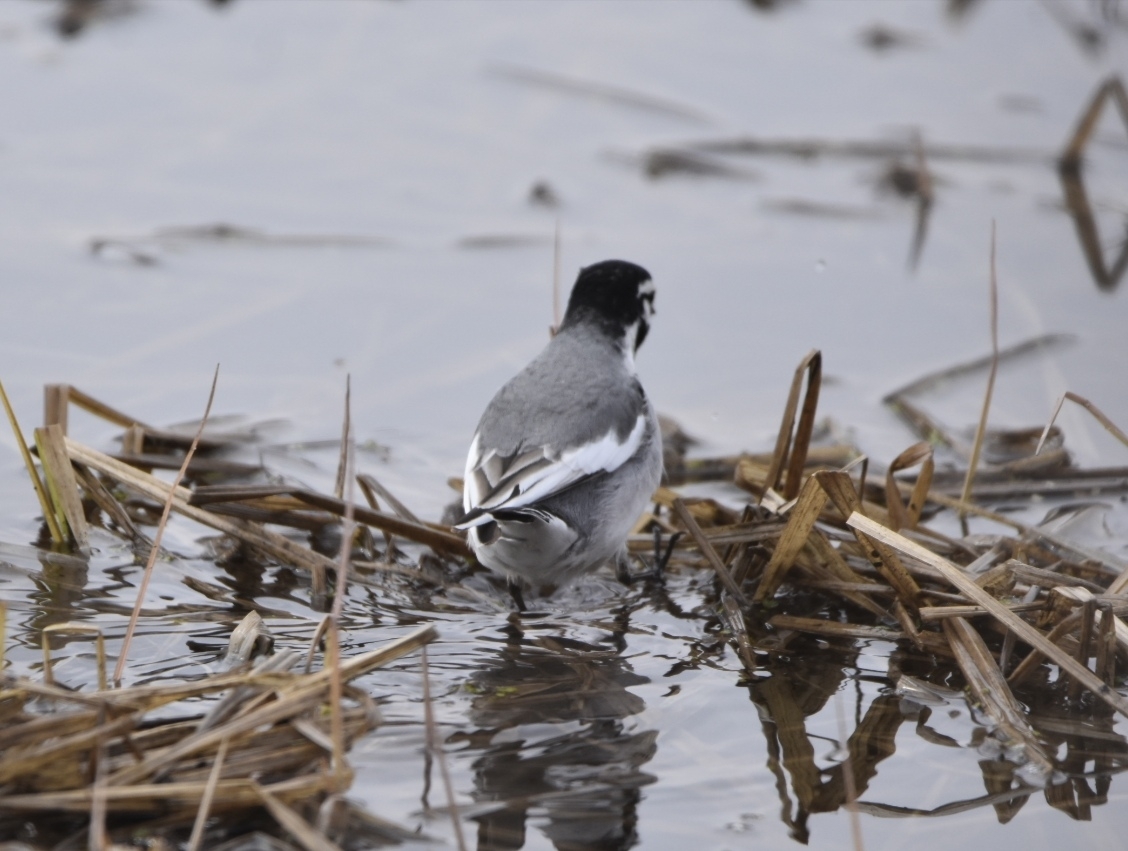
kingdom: Animalia
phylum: Chordata
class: Aves
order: Passeriformes
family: Motacillidae
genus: Motacilla
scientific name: Motacilla alba
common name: White wagtail
